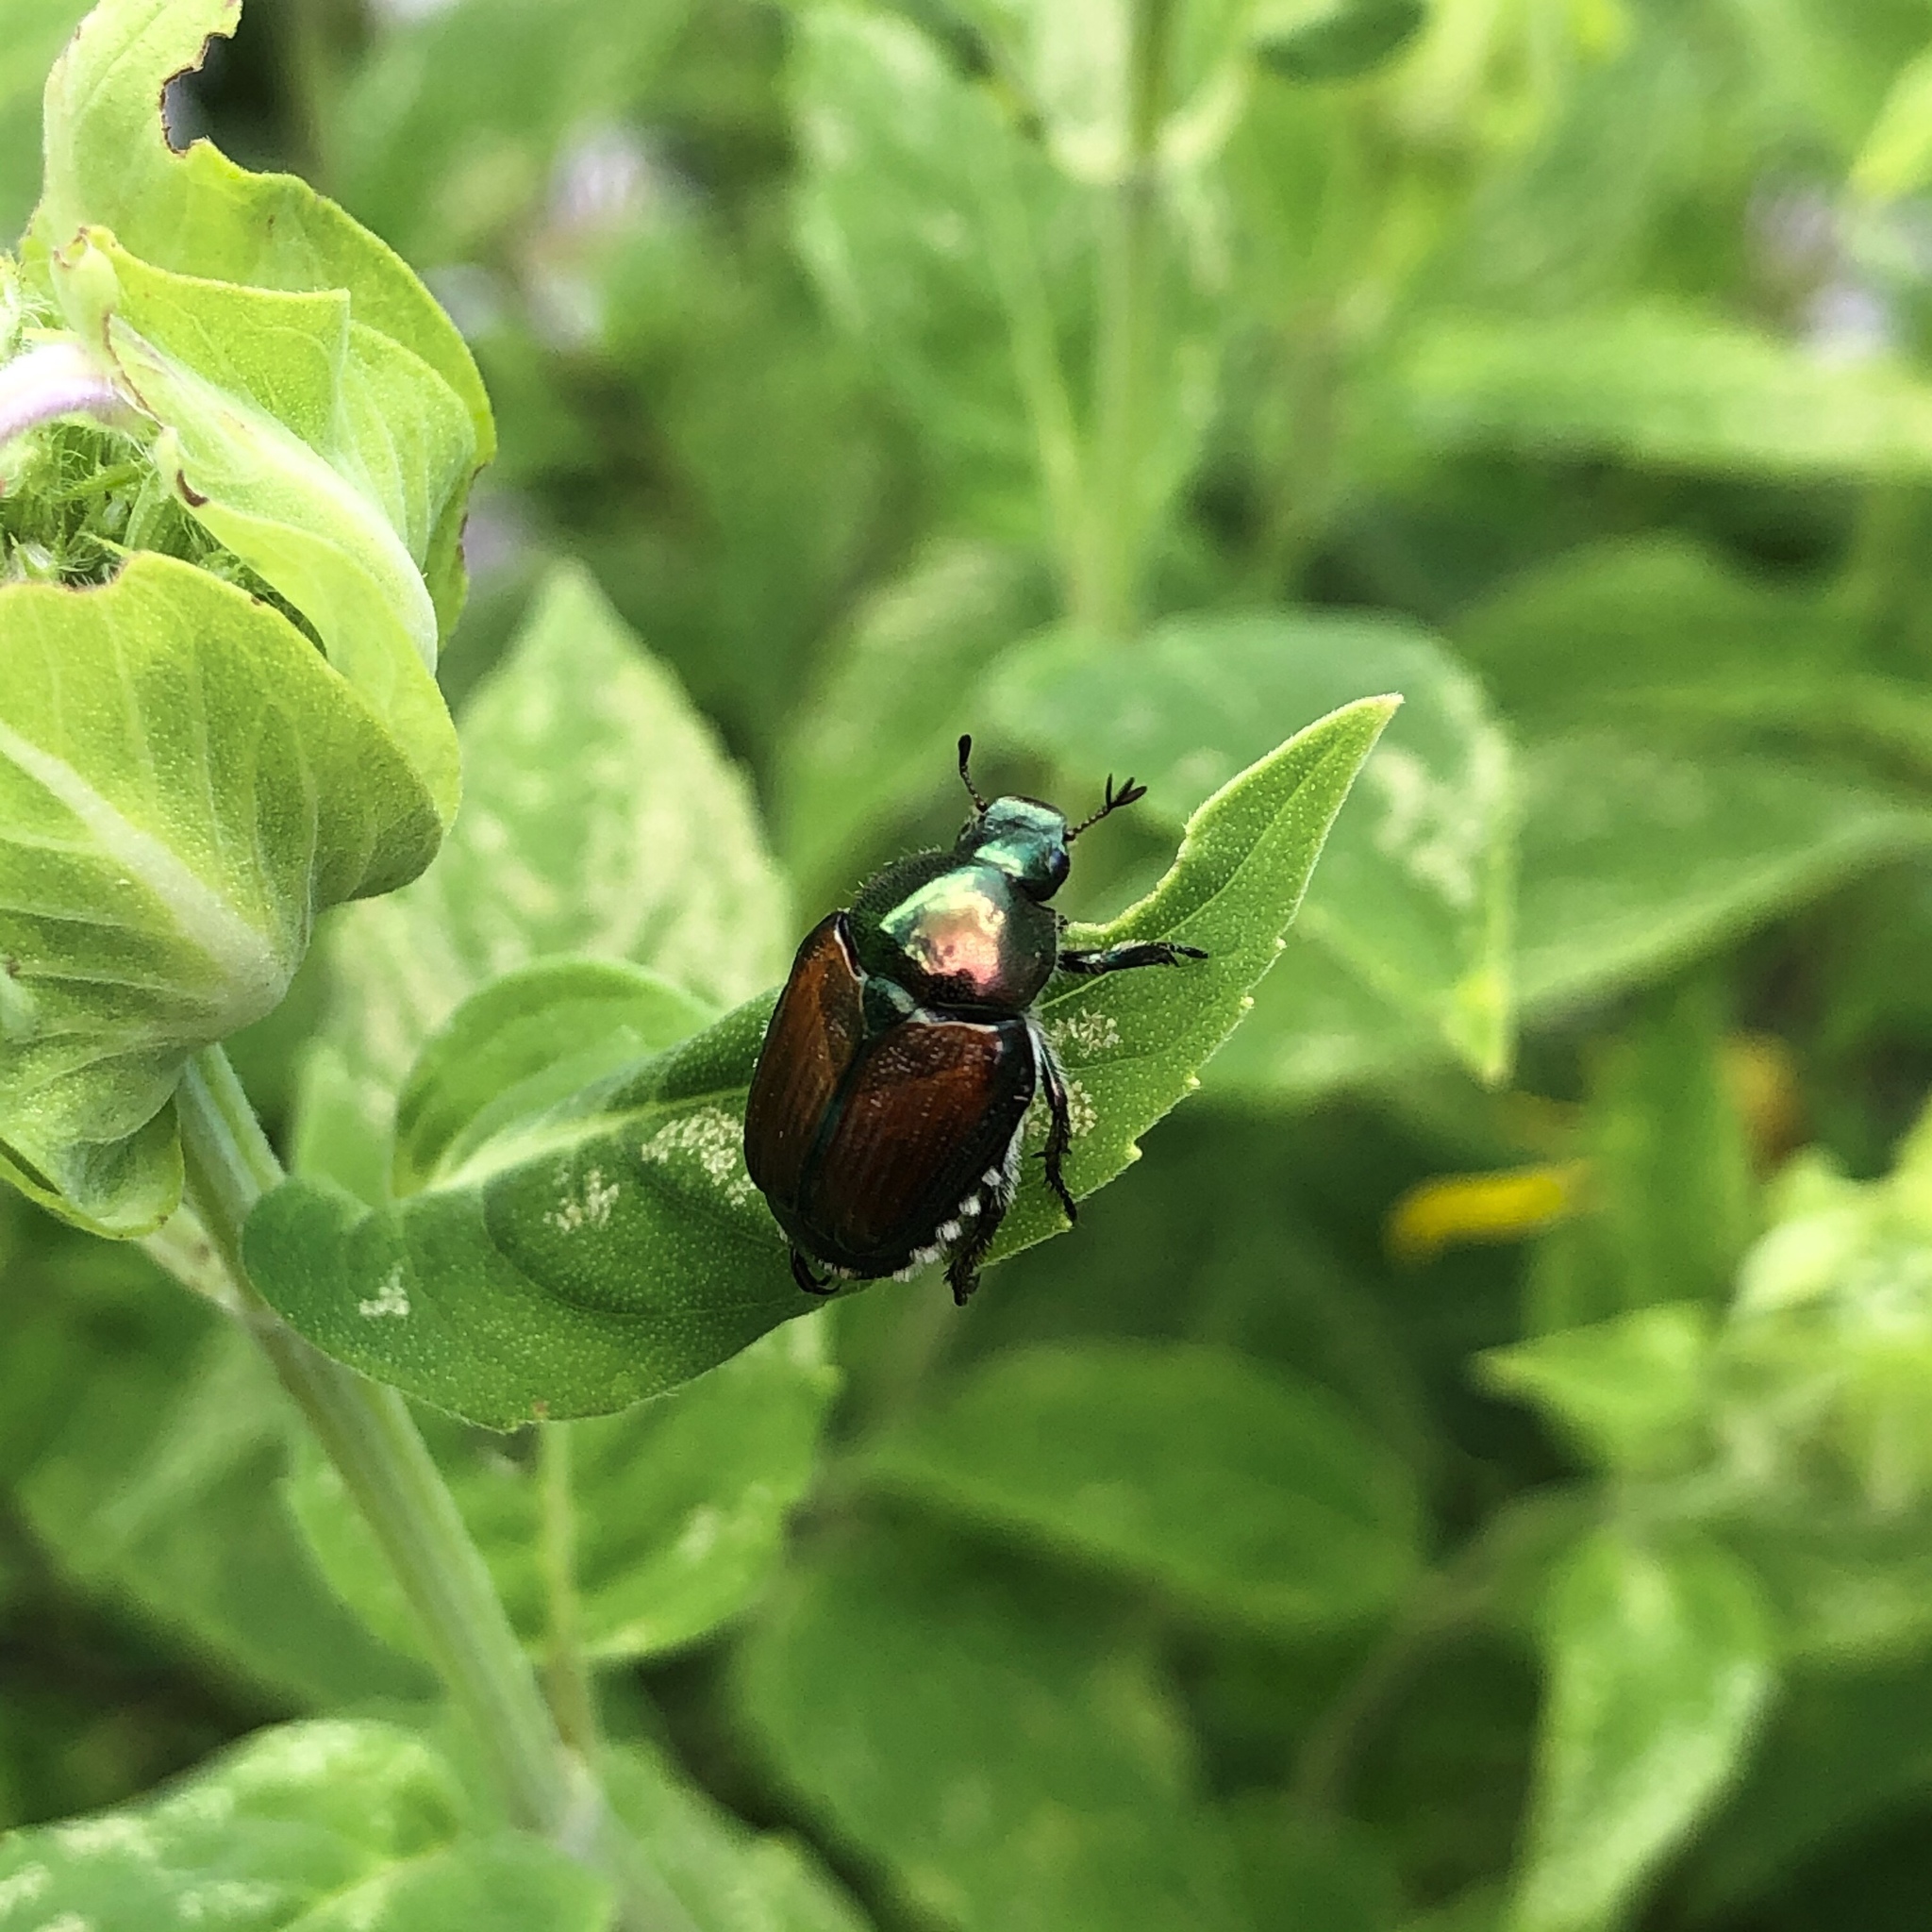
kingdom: Animalia
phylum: Arthropoda
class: Insecta
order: Coleoptera
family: Scarabaeidae
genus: Popillia
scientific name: Popillia japonica
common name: Japanese beetle
